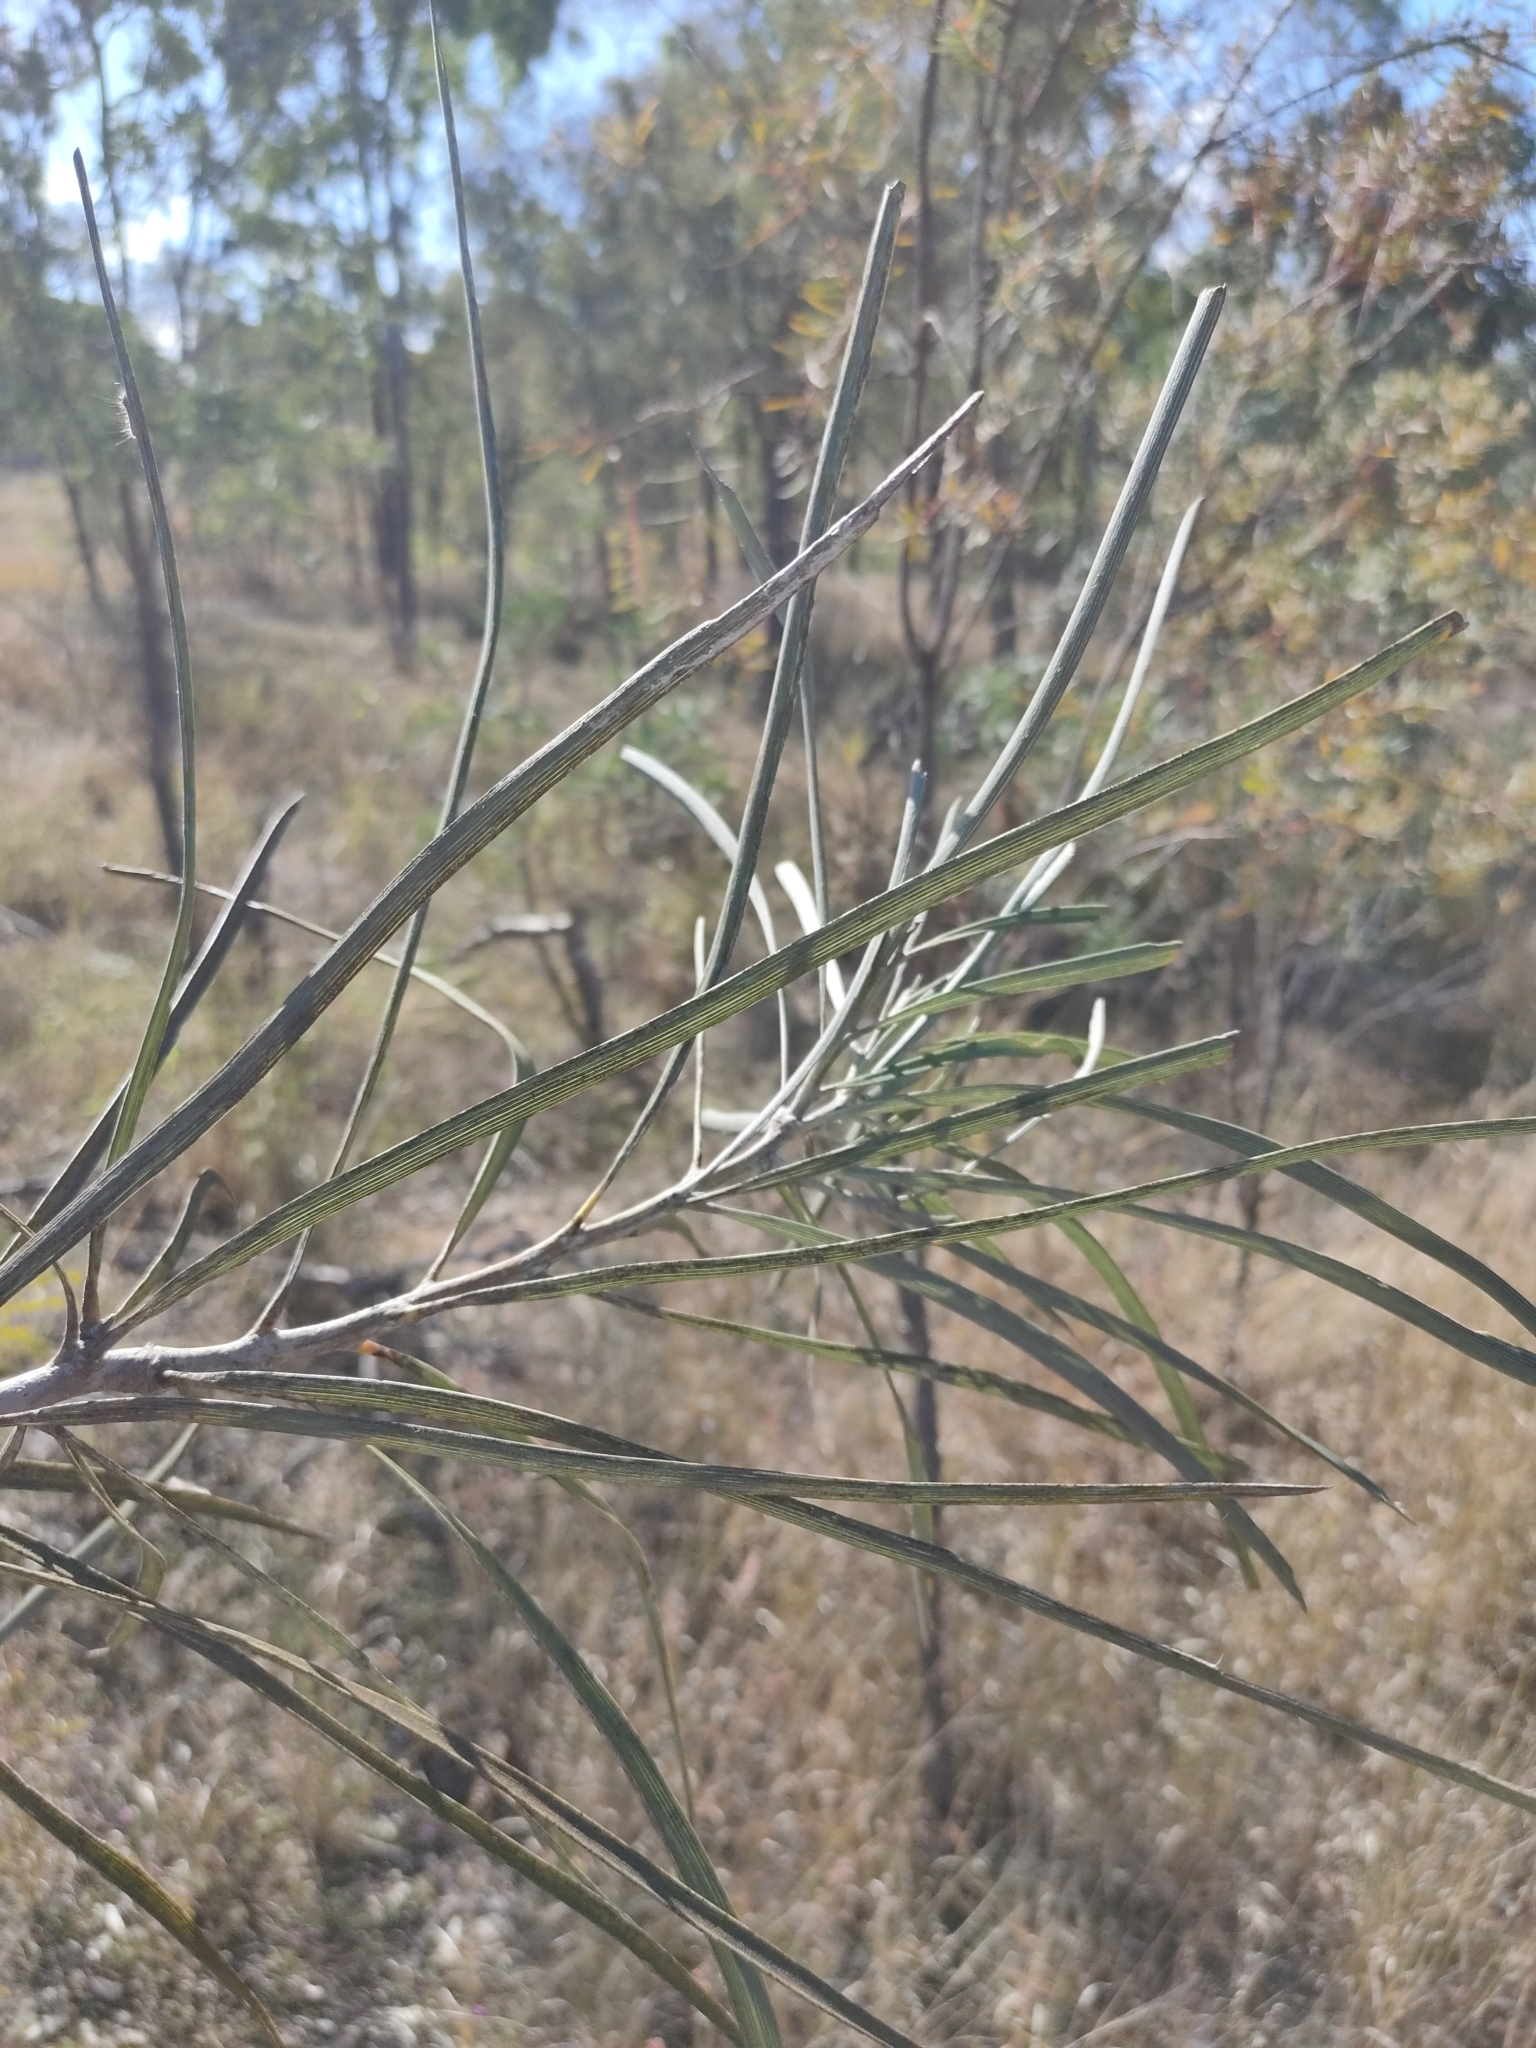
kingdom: Plantae
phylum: Tracheophyta
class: Magnoliopsida
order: Proteales
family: Proteaceae
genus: Grevillea
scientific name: Grevillea striata
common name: Beefwood
